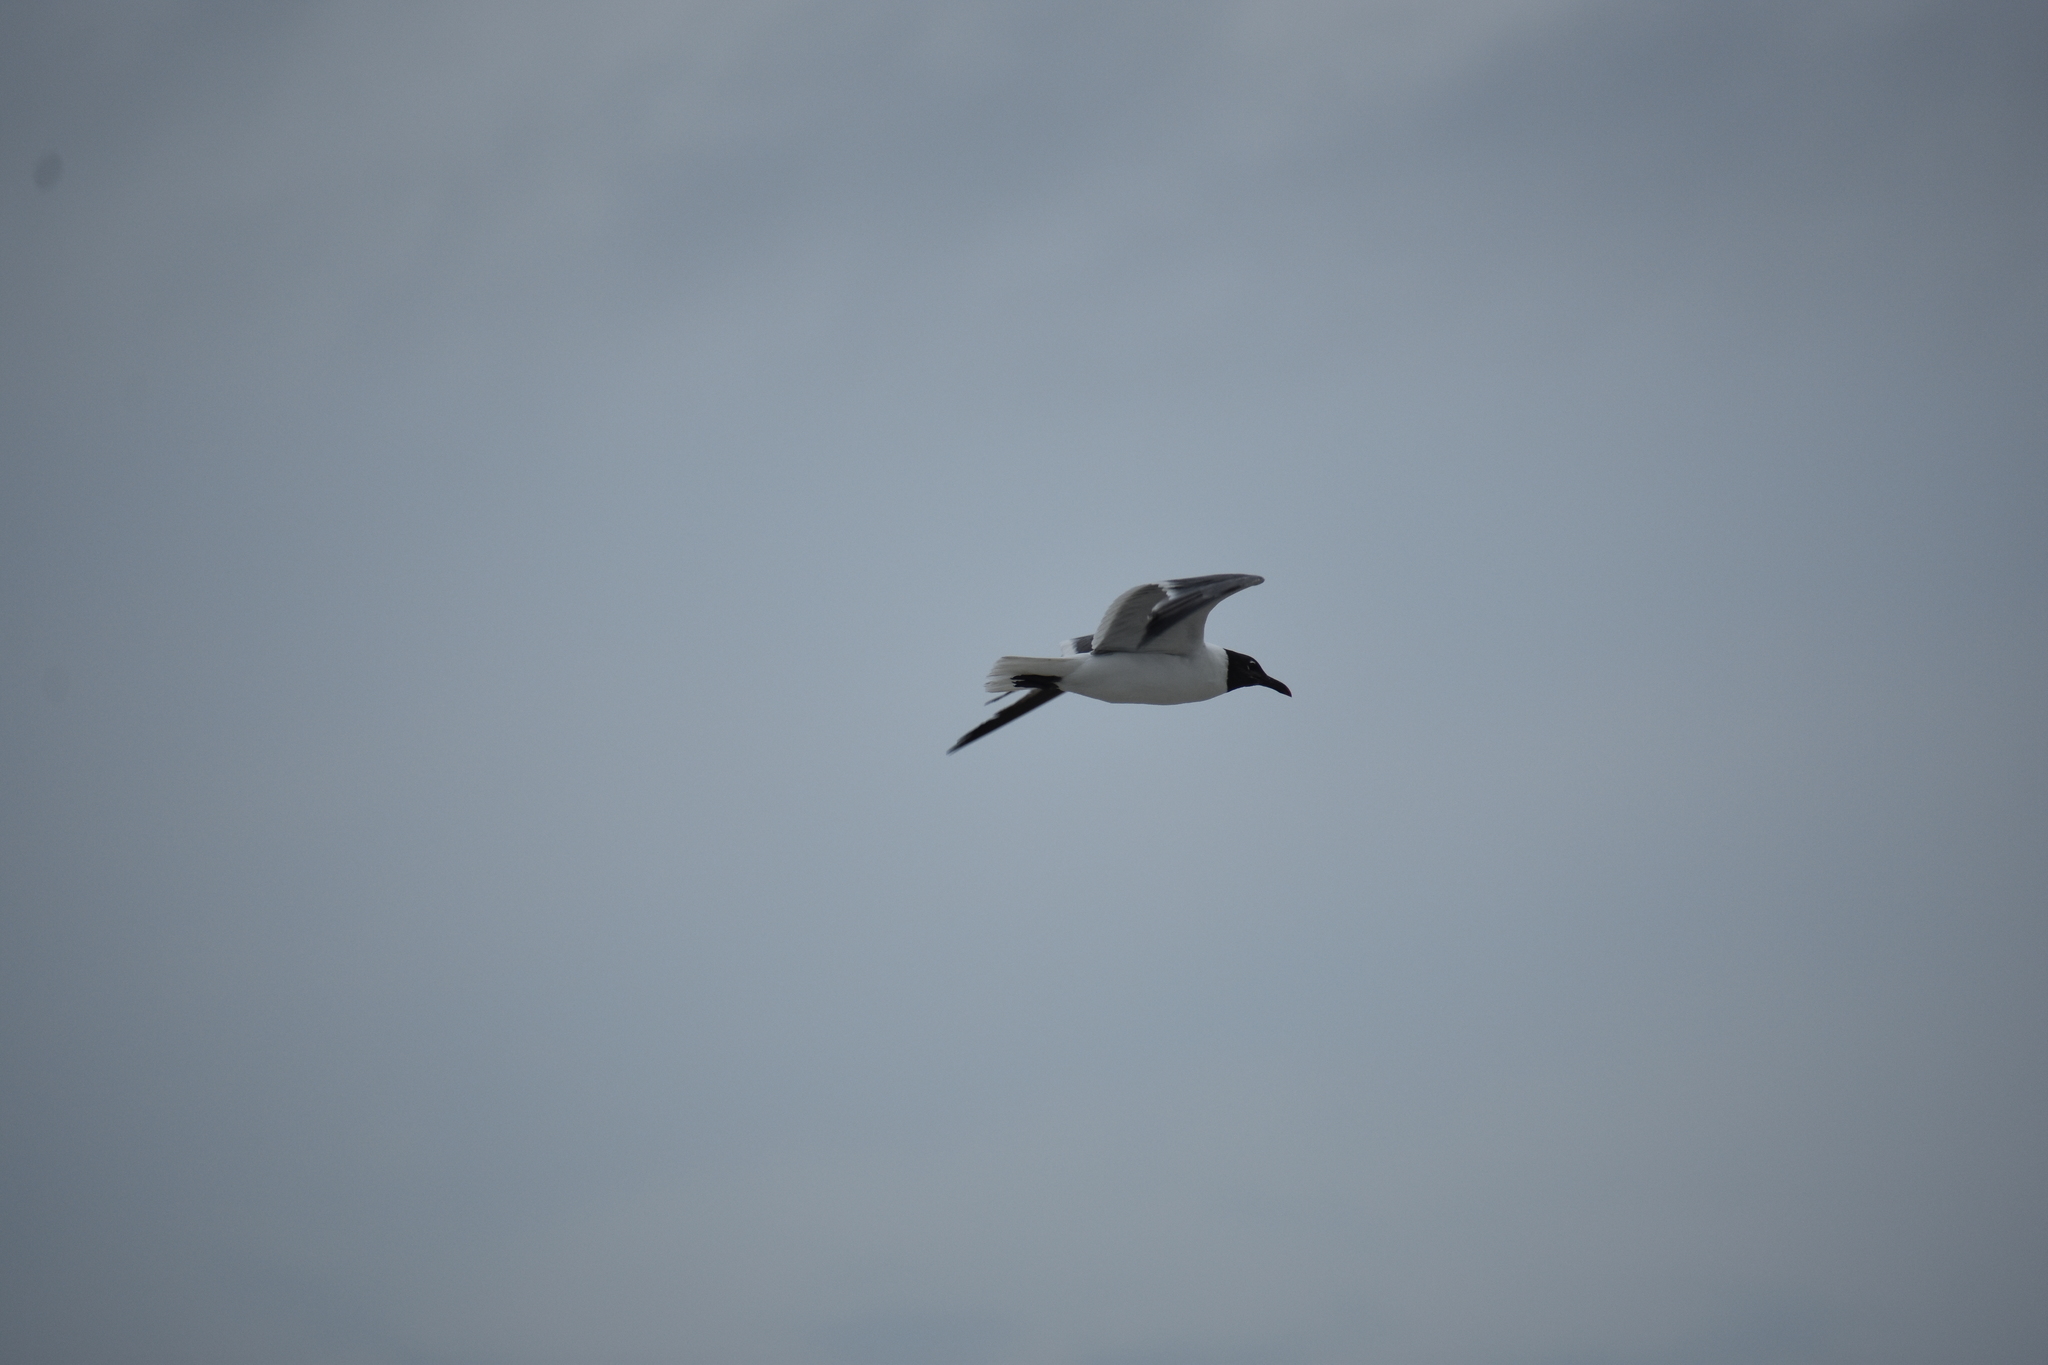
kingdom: Animalia
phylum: Chordata
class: Aves
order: Charadriiformes
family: Laridae
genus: Leucophaeus
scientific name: Leucophaeus atricilla
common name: Laughing gull
